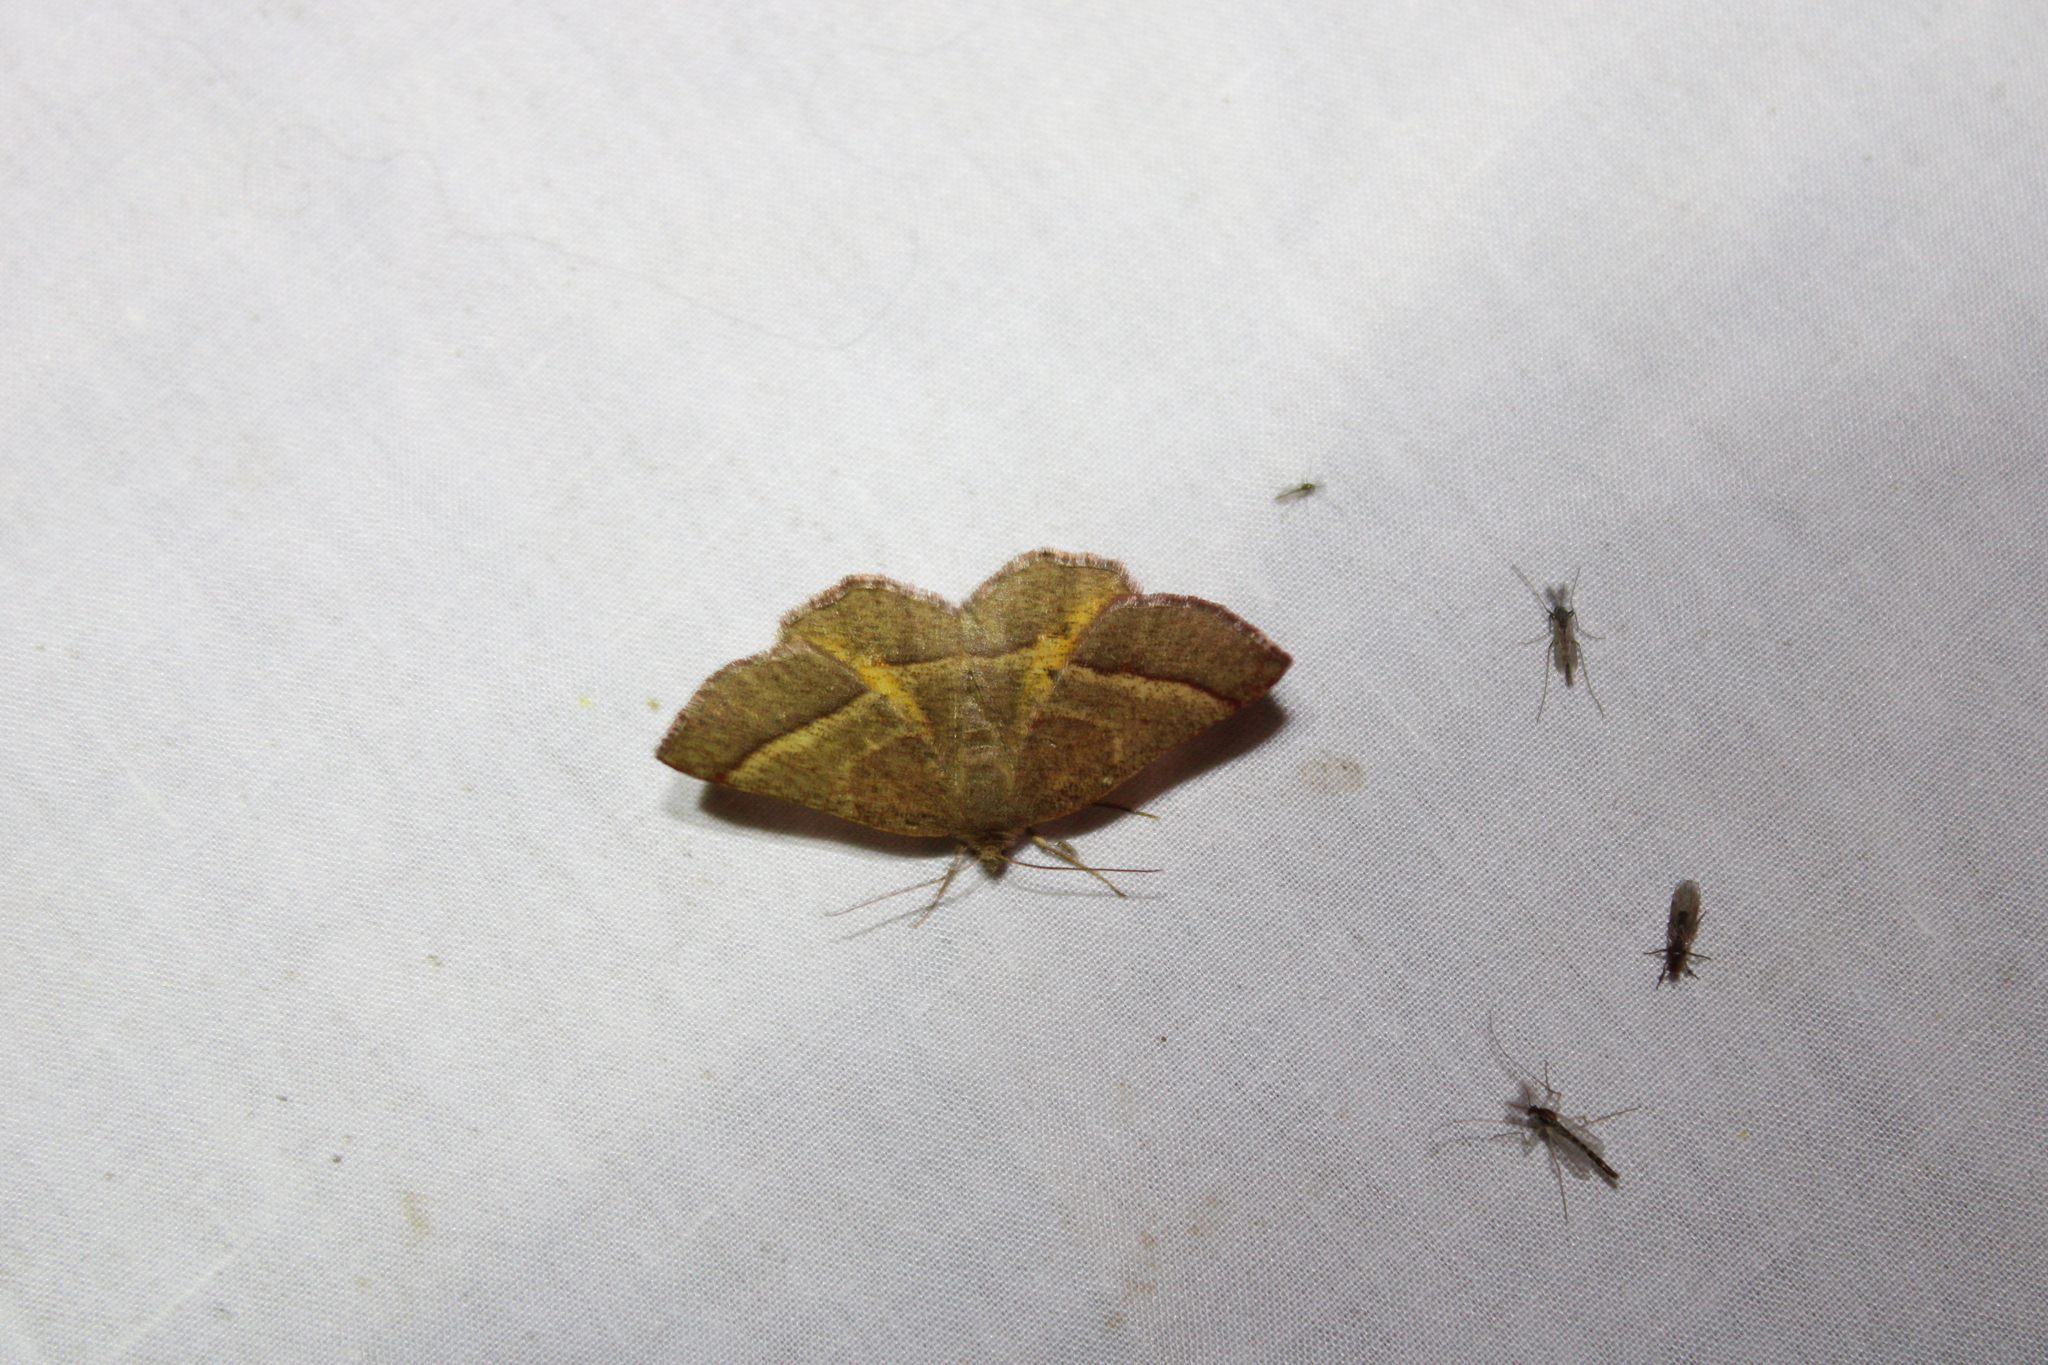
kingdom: Animalia
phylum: Arthropoda
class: Insecta
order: Lepidoptera
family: Geometridae
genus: Metarranthis
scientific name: Metarranthis obfirmaria
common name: Yellow-washed metarranthis
